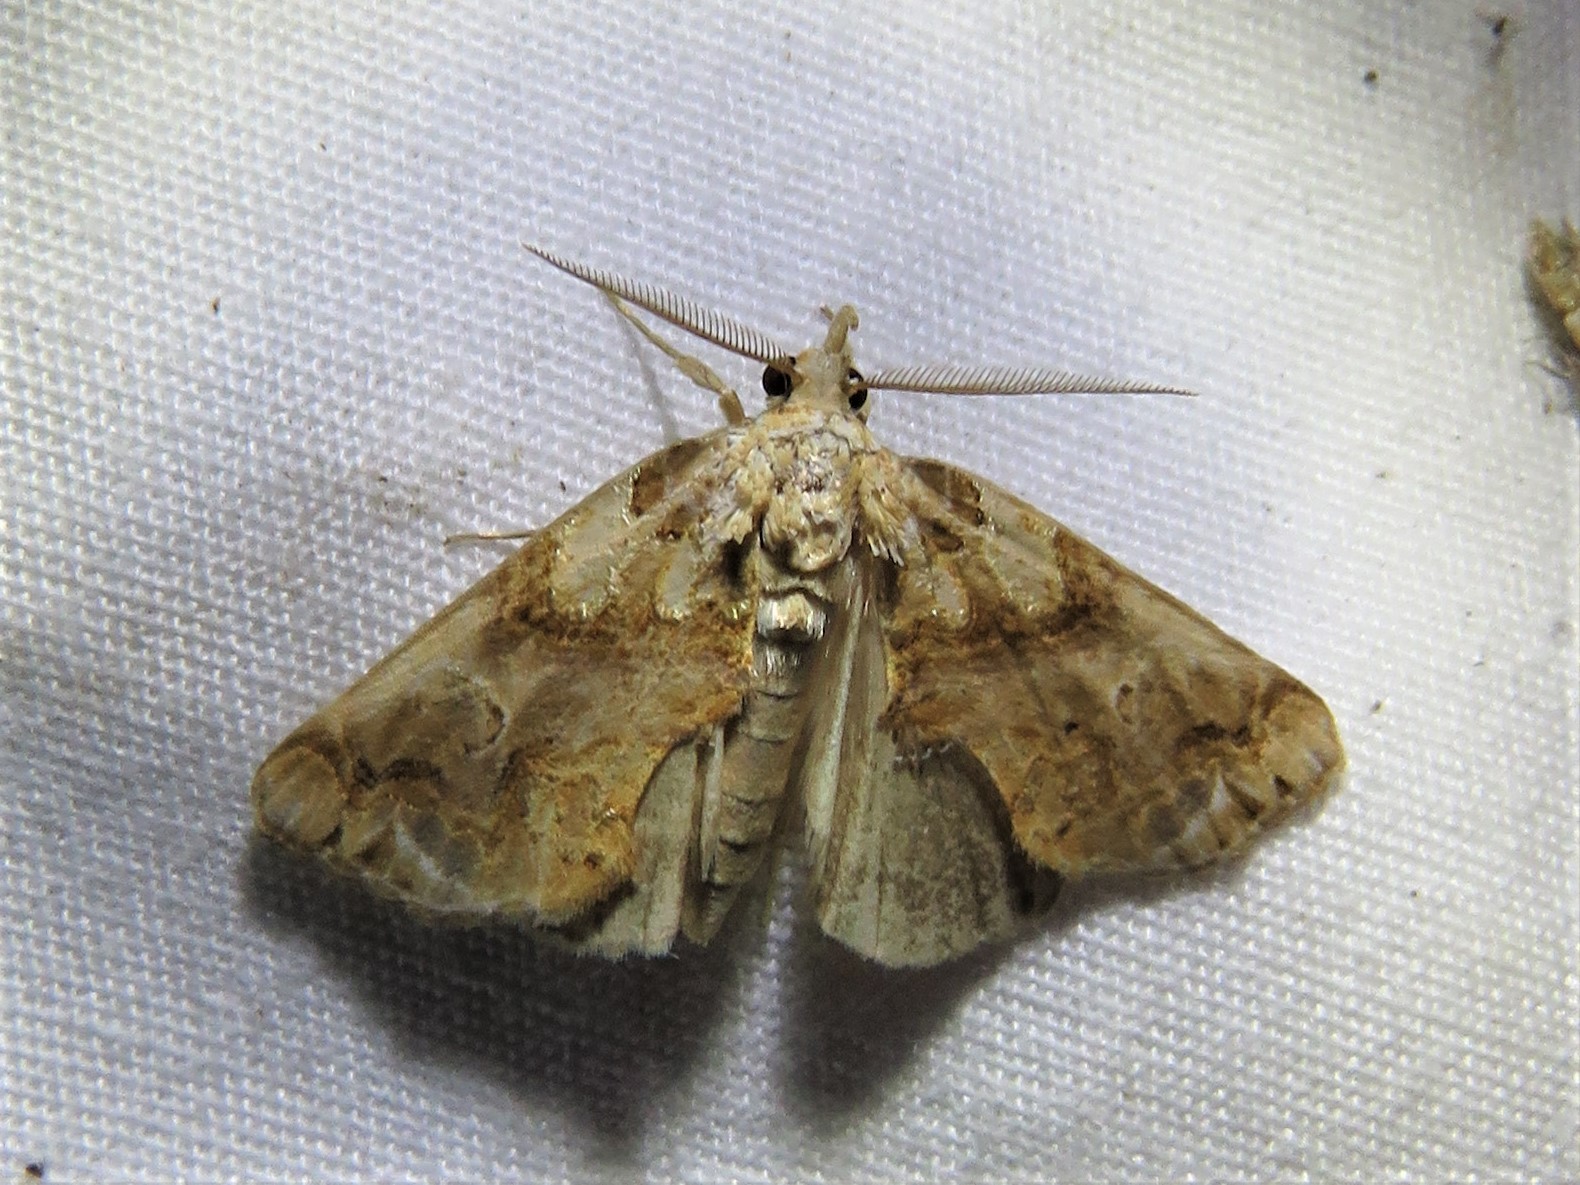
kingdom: Animalia
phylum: Arthropoda
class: Insecta
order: Lepidoptera
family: Erebidae
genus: Plusiodonta
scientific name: Plusiodonta compressipalpis
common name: Moonseed moth
